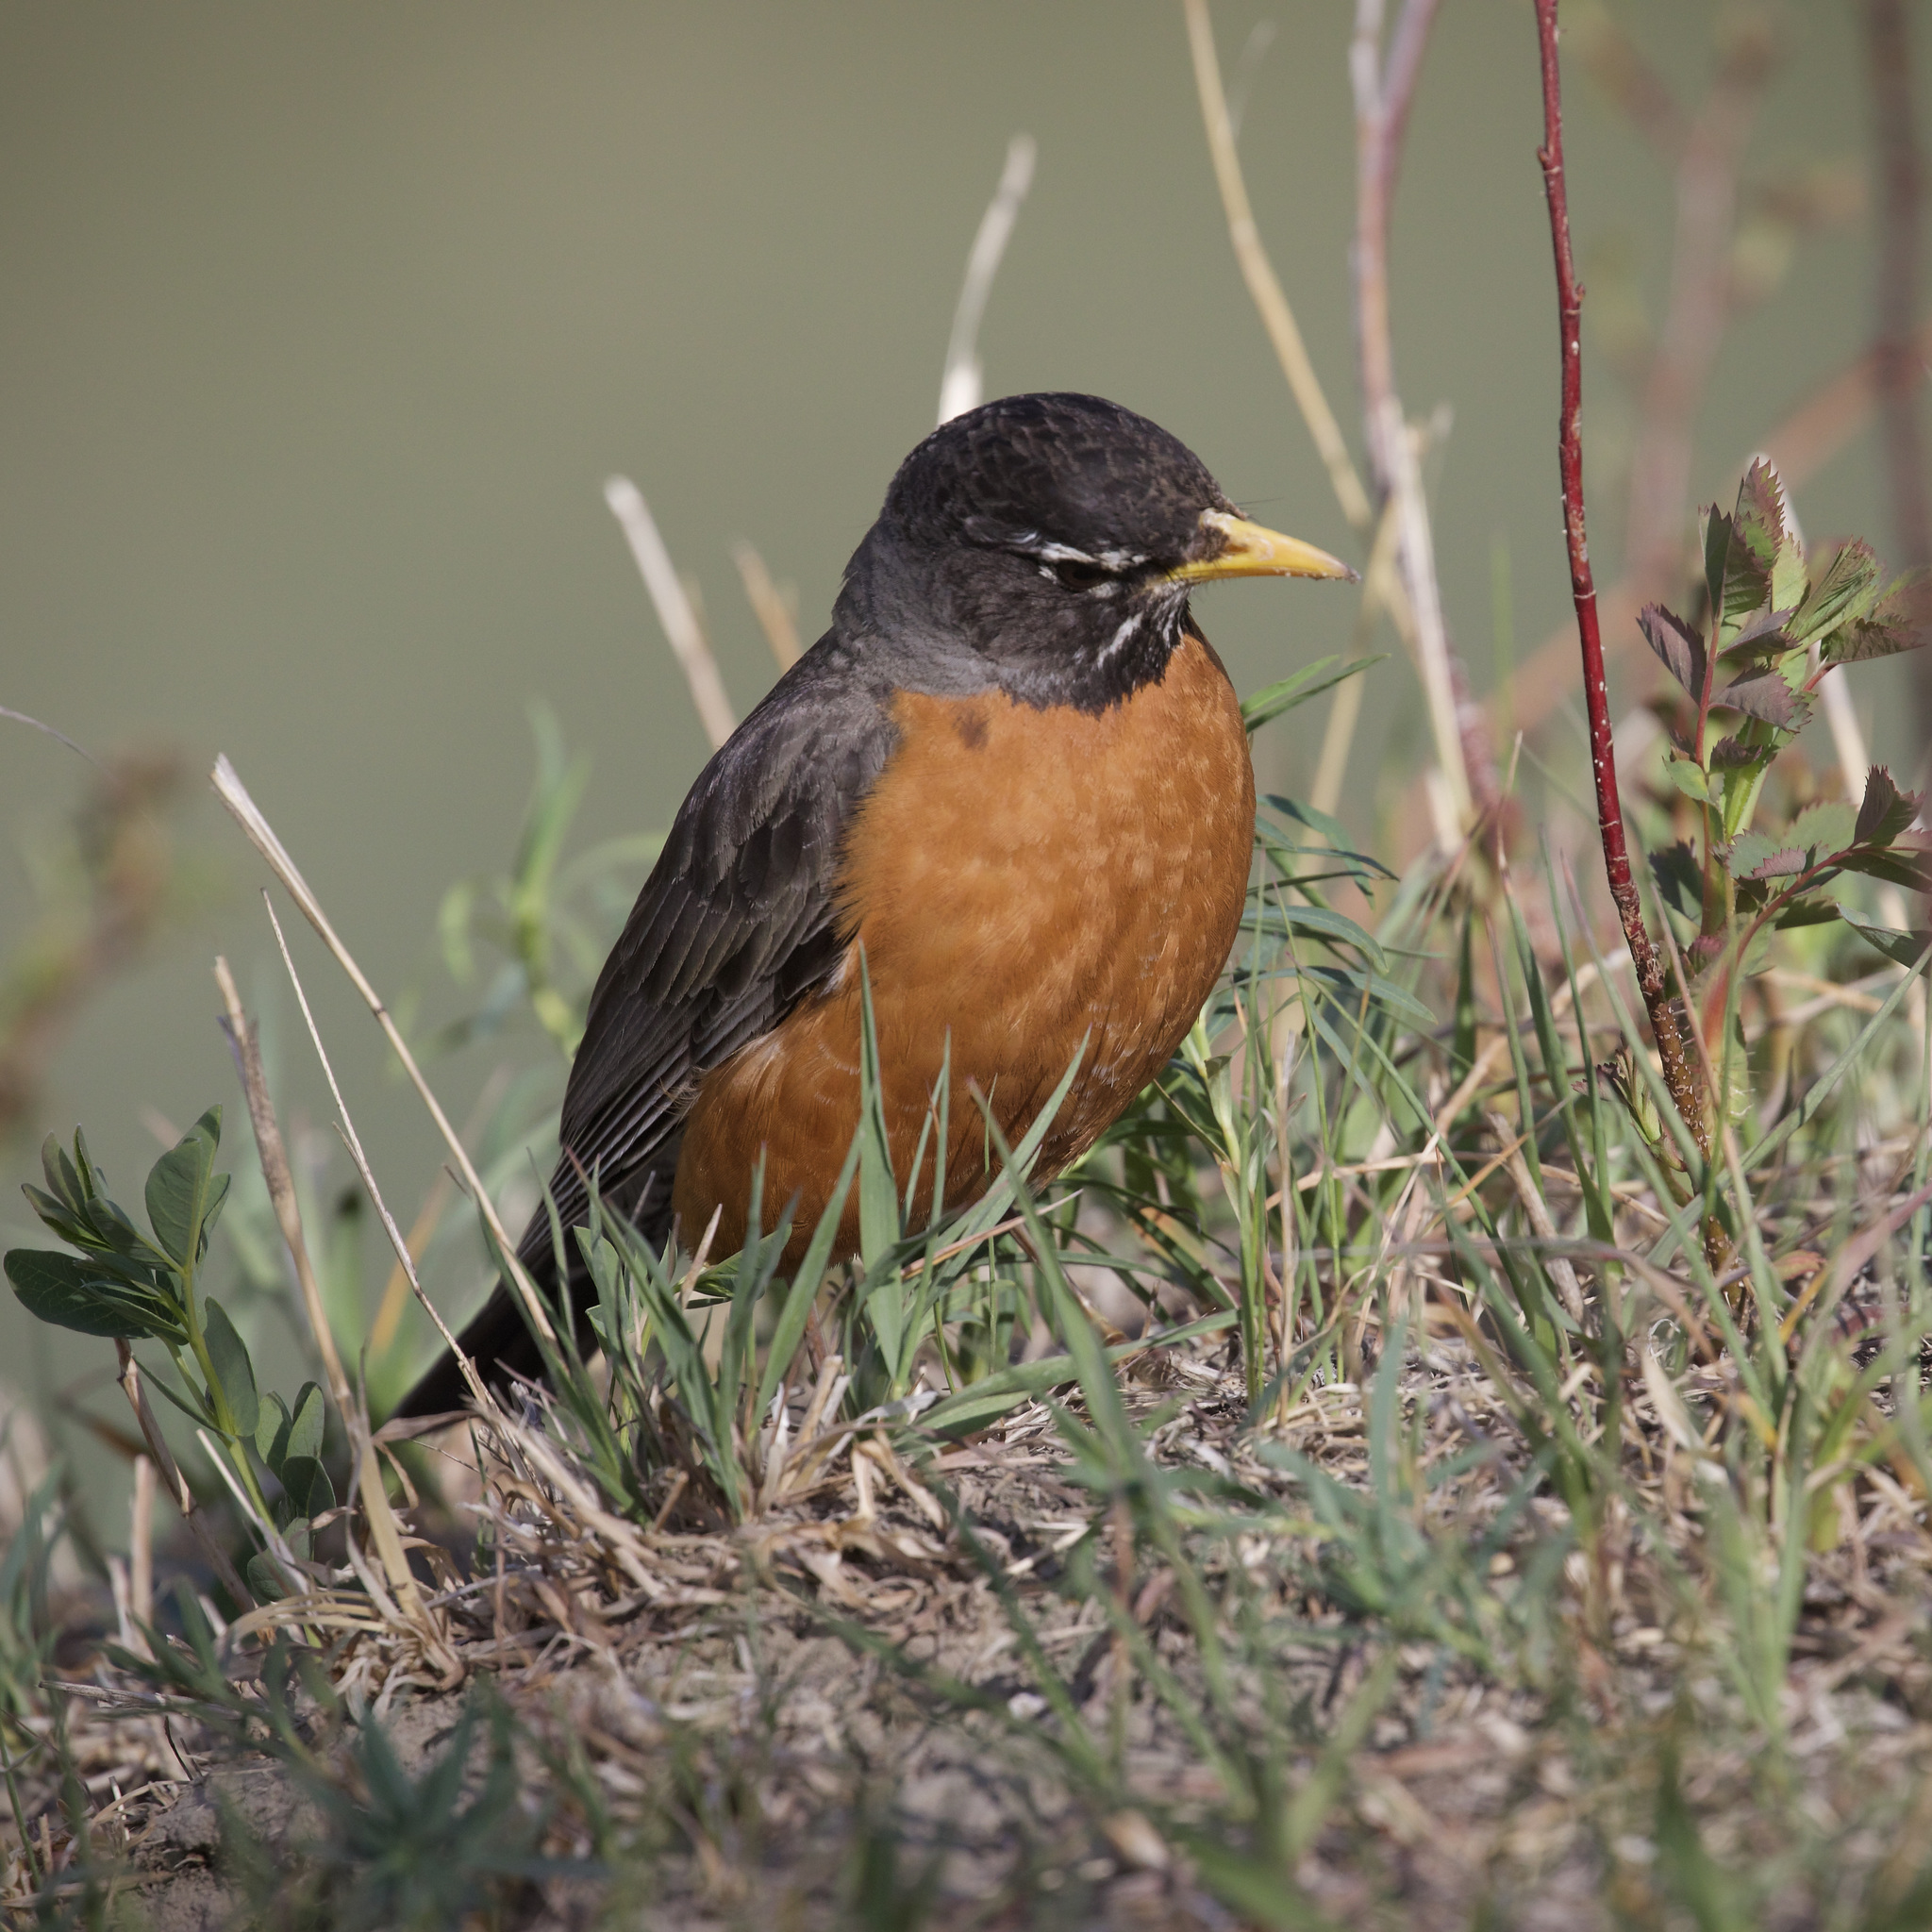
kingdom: Animalia
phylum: Chordata
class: Aves
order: Passeriformes
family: Turdidae
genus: Turdus
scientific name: Turdus migratorius
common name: American robin
